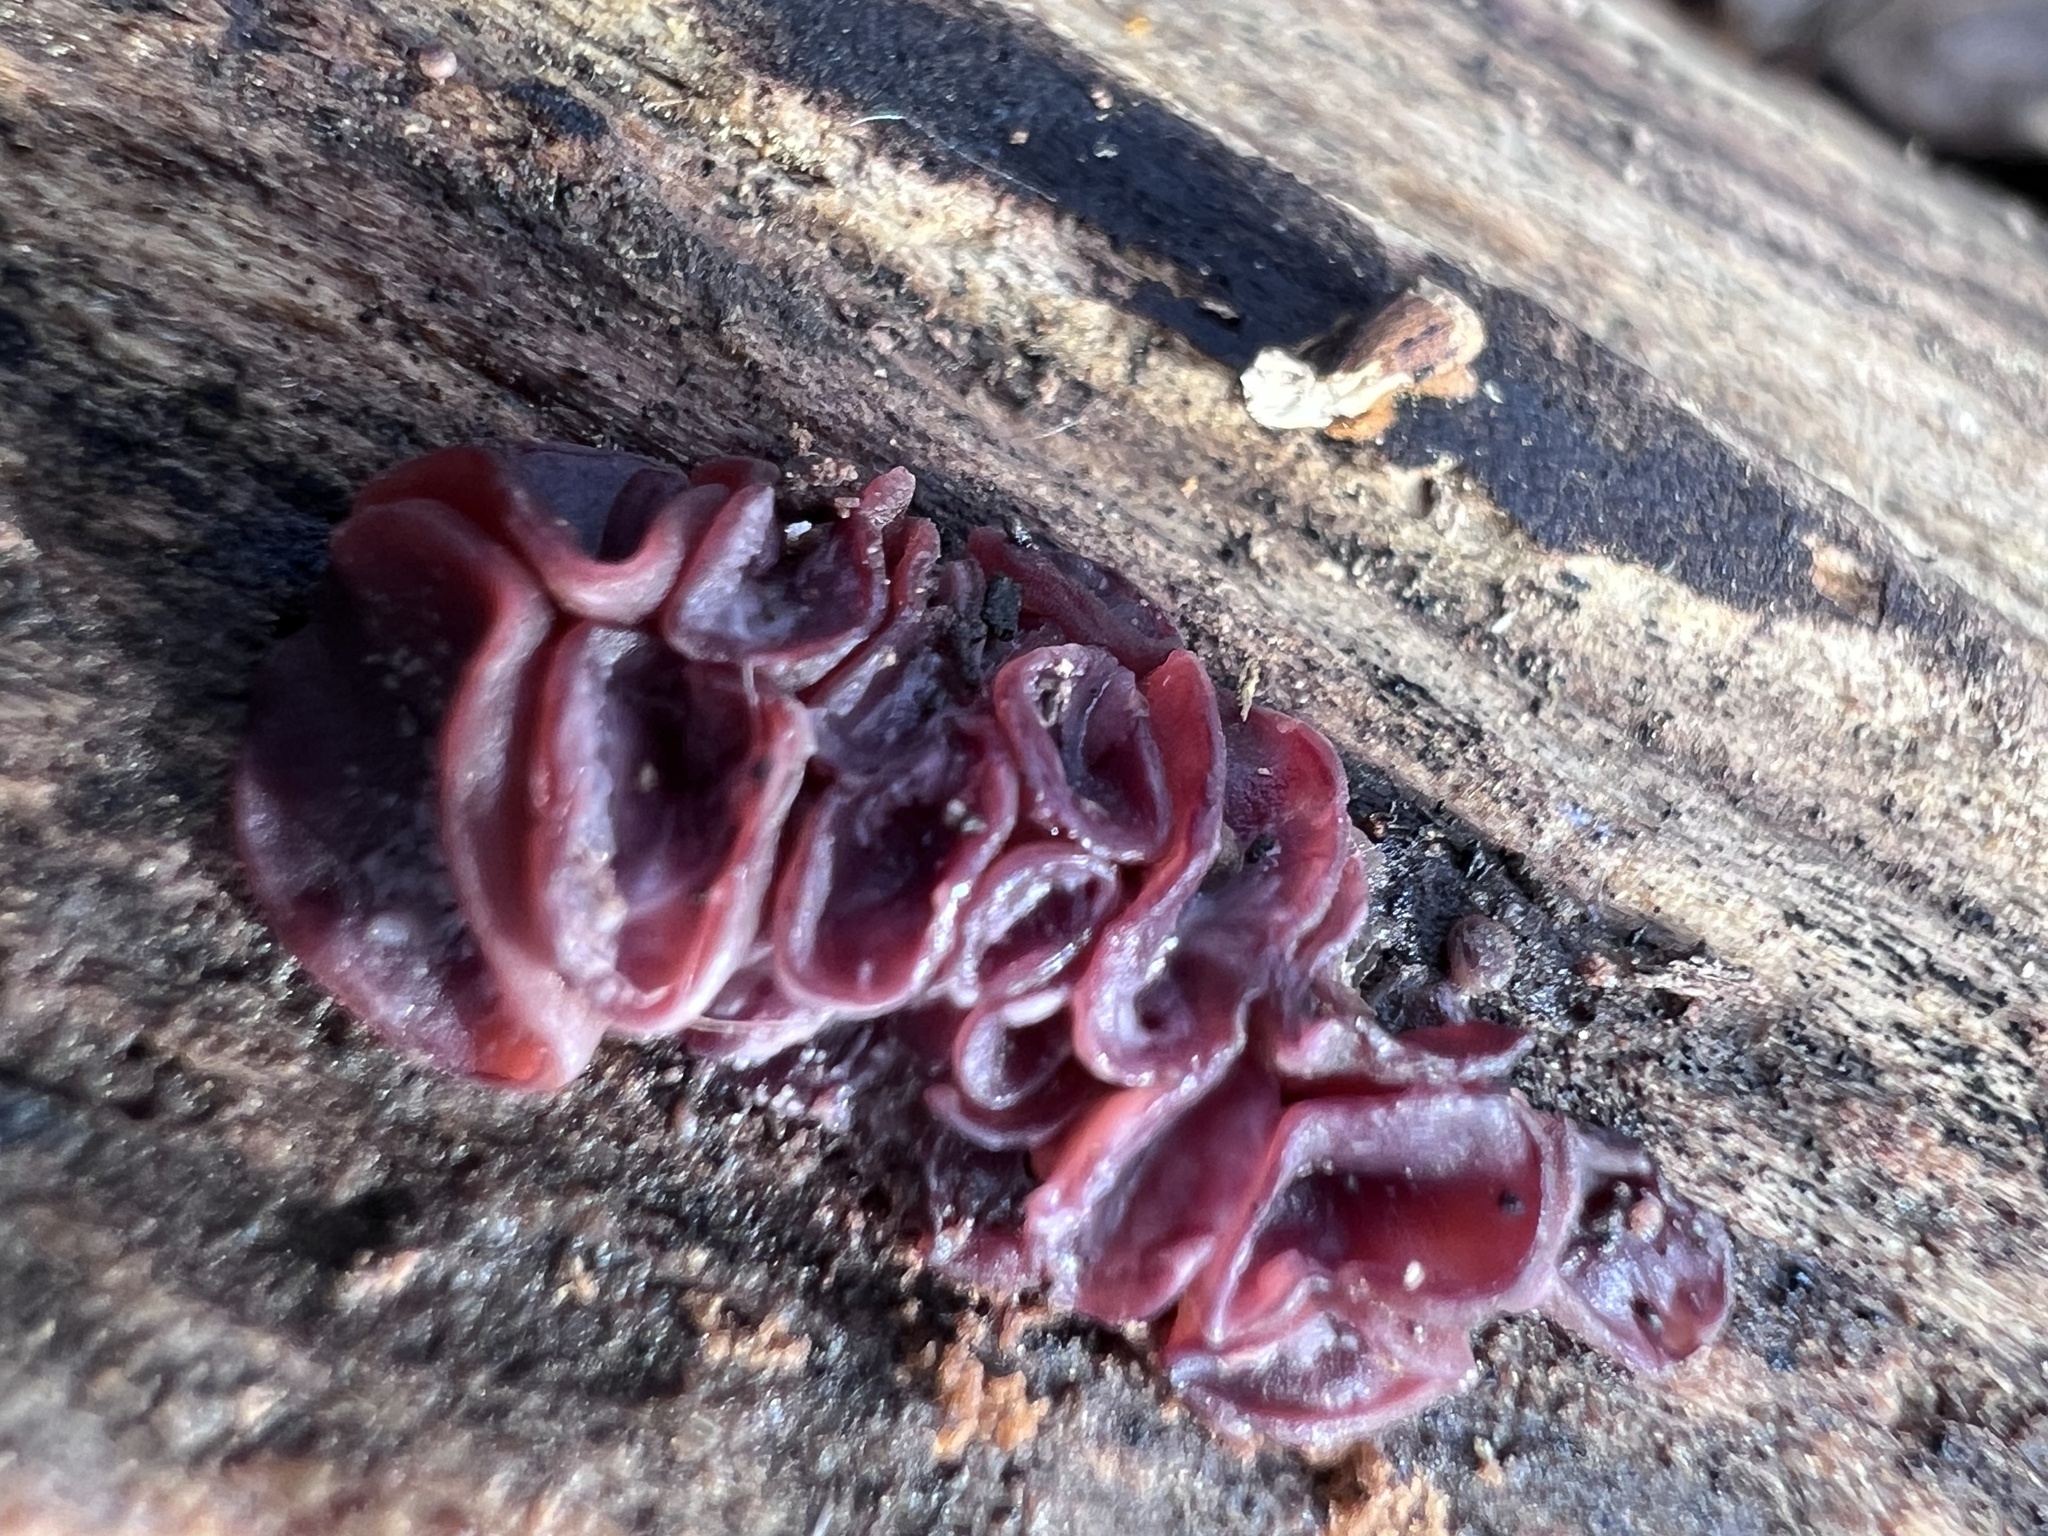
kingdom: Fungi
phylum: Ascomycota
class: Leotiomycetes
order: Helotiales
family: Gelatinodiscaceae
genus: Ascocoryne
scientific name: Ascocoryne
